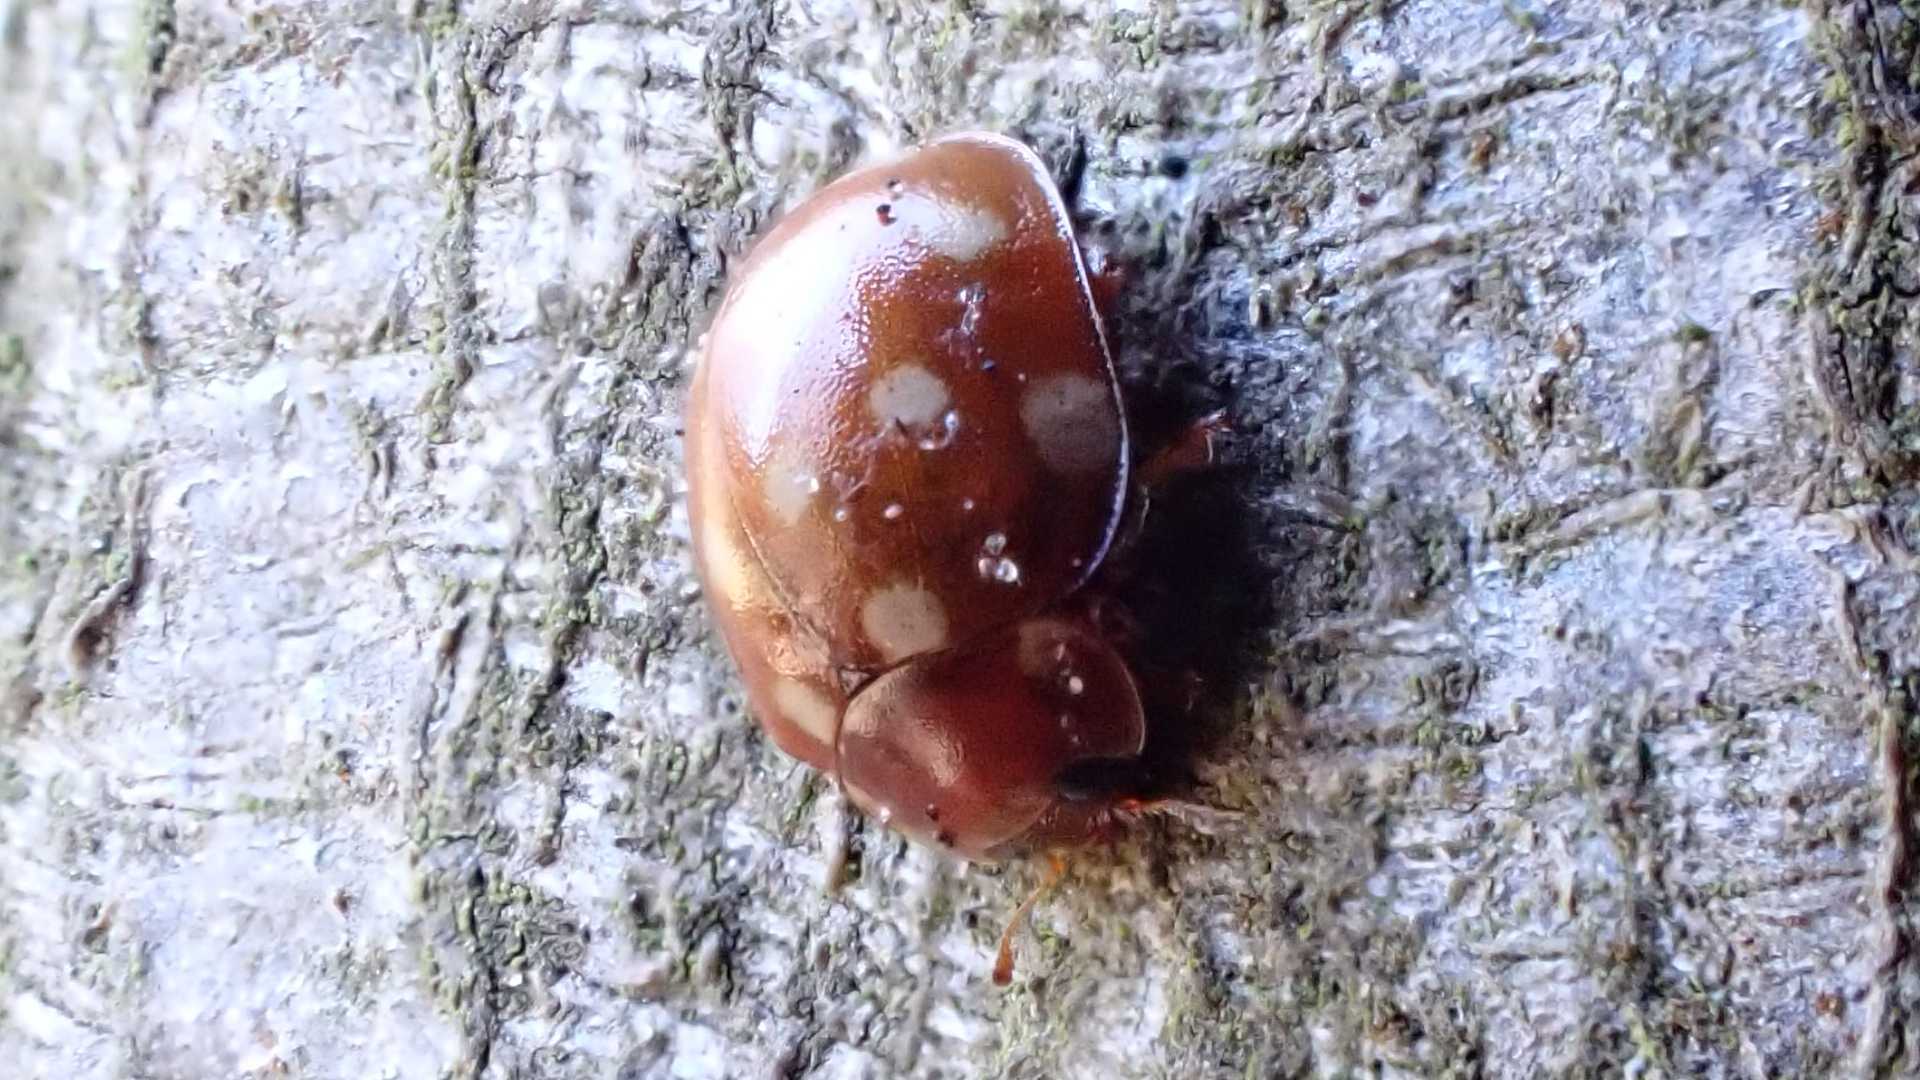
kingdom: Animalia
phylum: Arthropoda
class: Insecta
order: Coleoptera
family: Coccinellidae
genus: Calvia
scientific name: Calvia quatuordecimguttata
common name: Cream-spot ladybird
